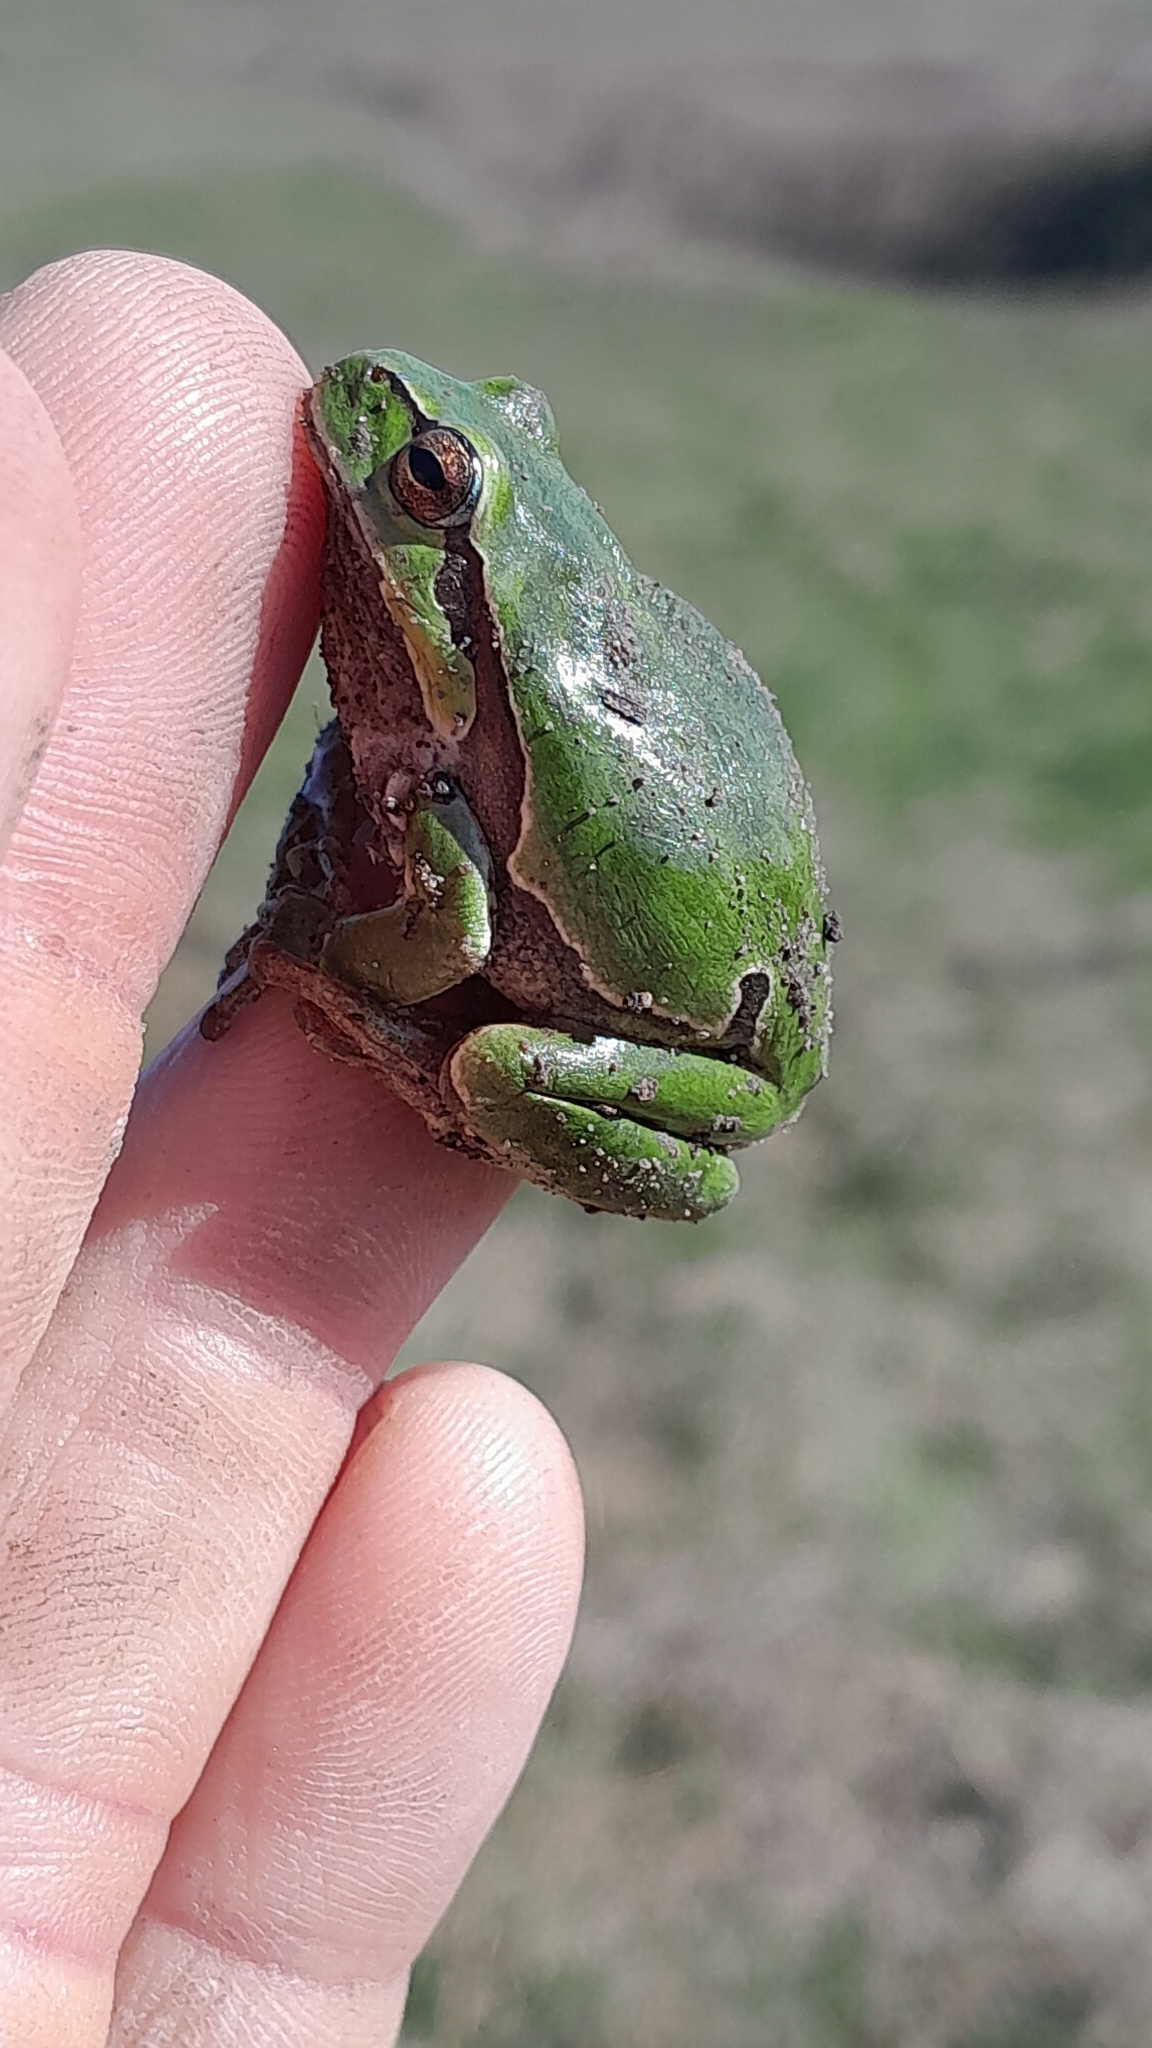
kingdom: Animalia
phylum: Chordata
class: Amphibia
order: Anura
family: Hylidae
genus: Hyla
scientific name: Hyla arborea
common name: Common tree frog
